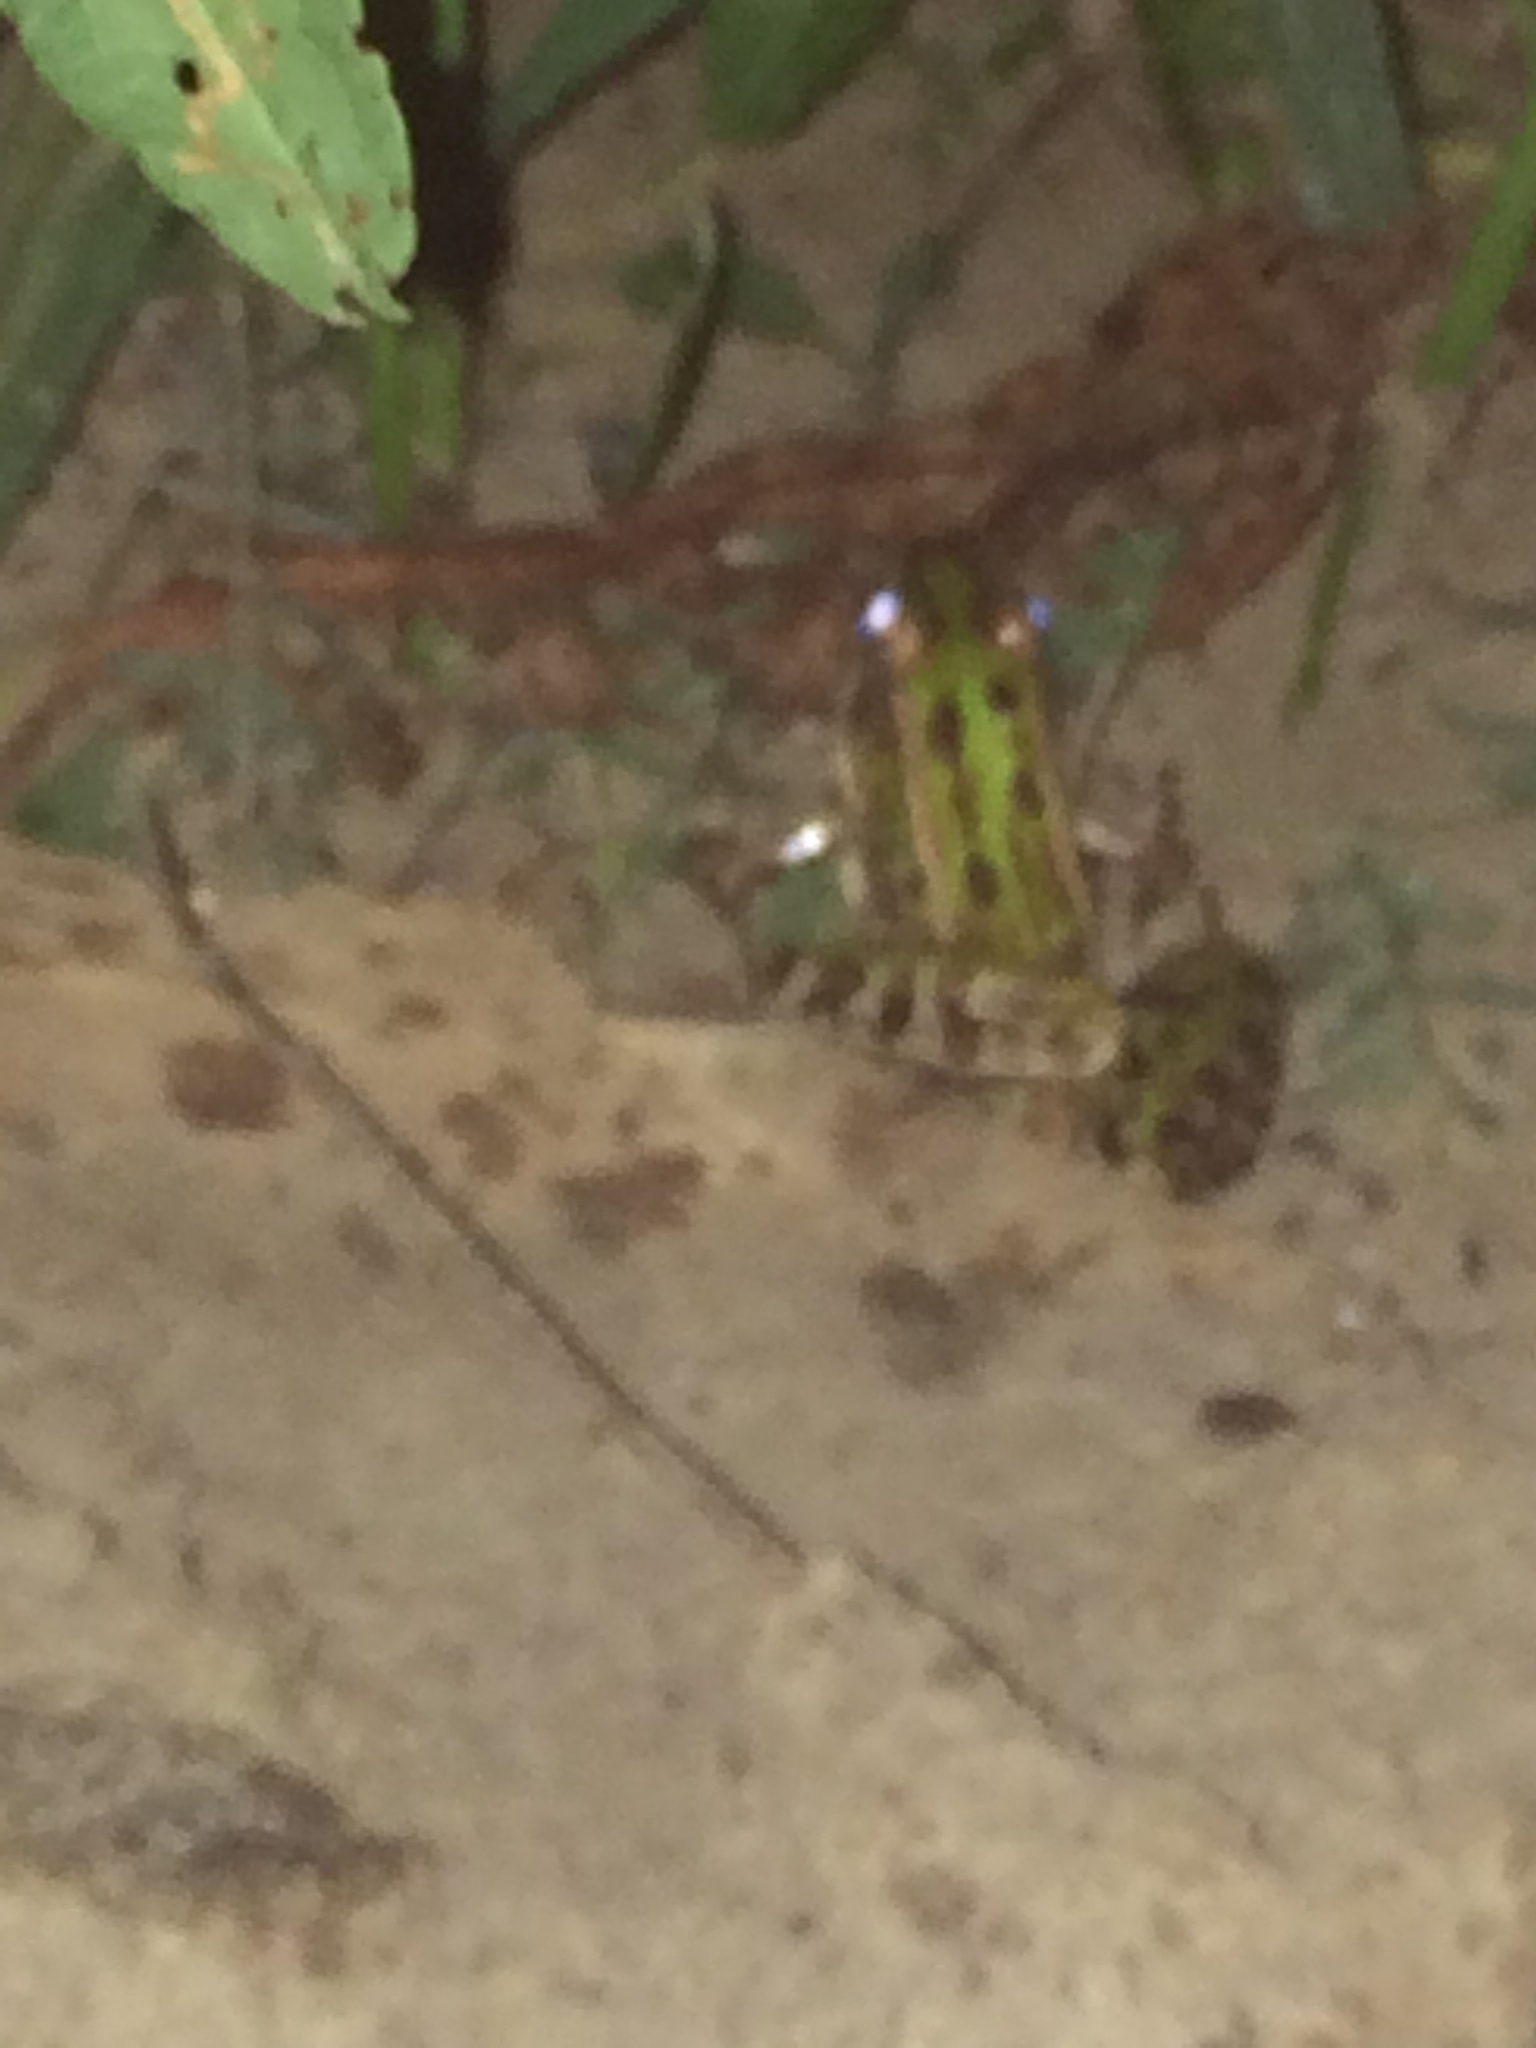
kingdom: Animalia
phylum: Chordata
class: Amphibia
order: Anura
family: Ranidae
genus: Lithobates
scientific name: Lithobates pipiens
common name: Northern leopard frog
